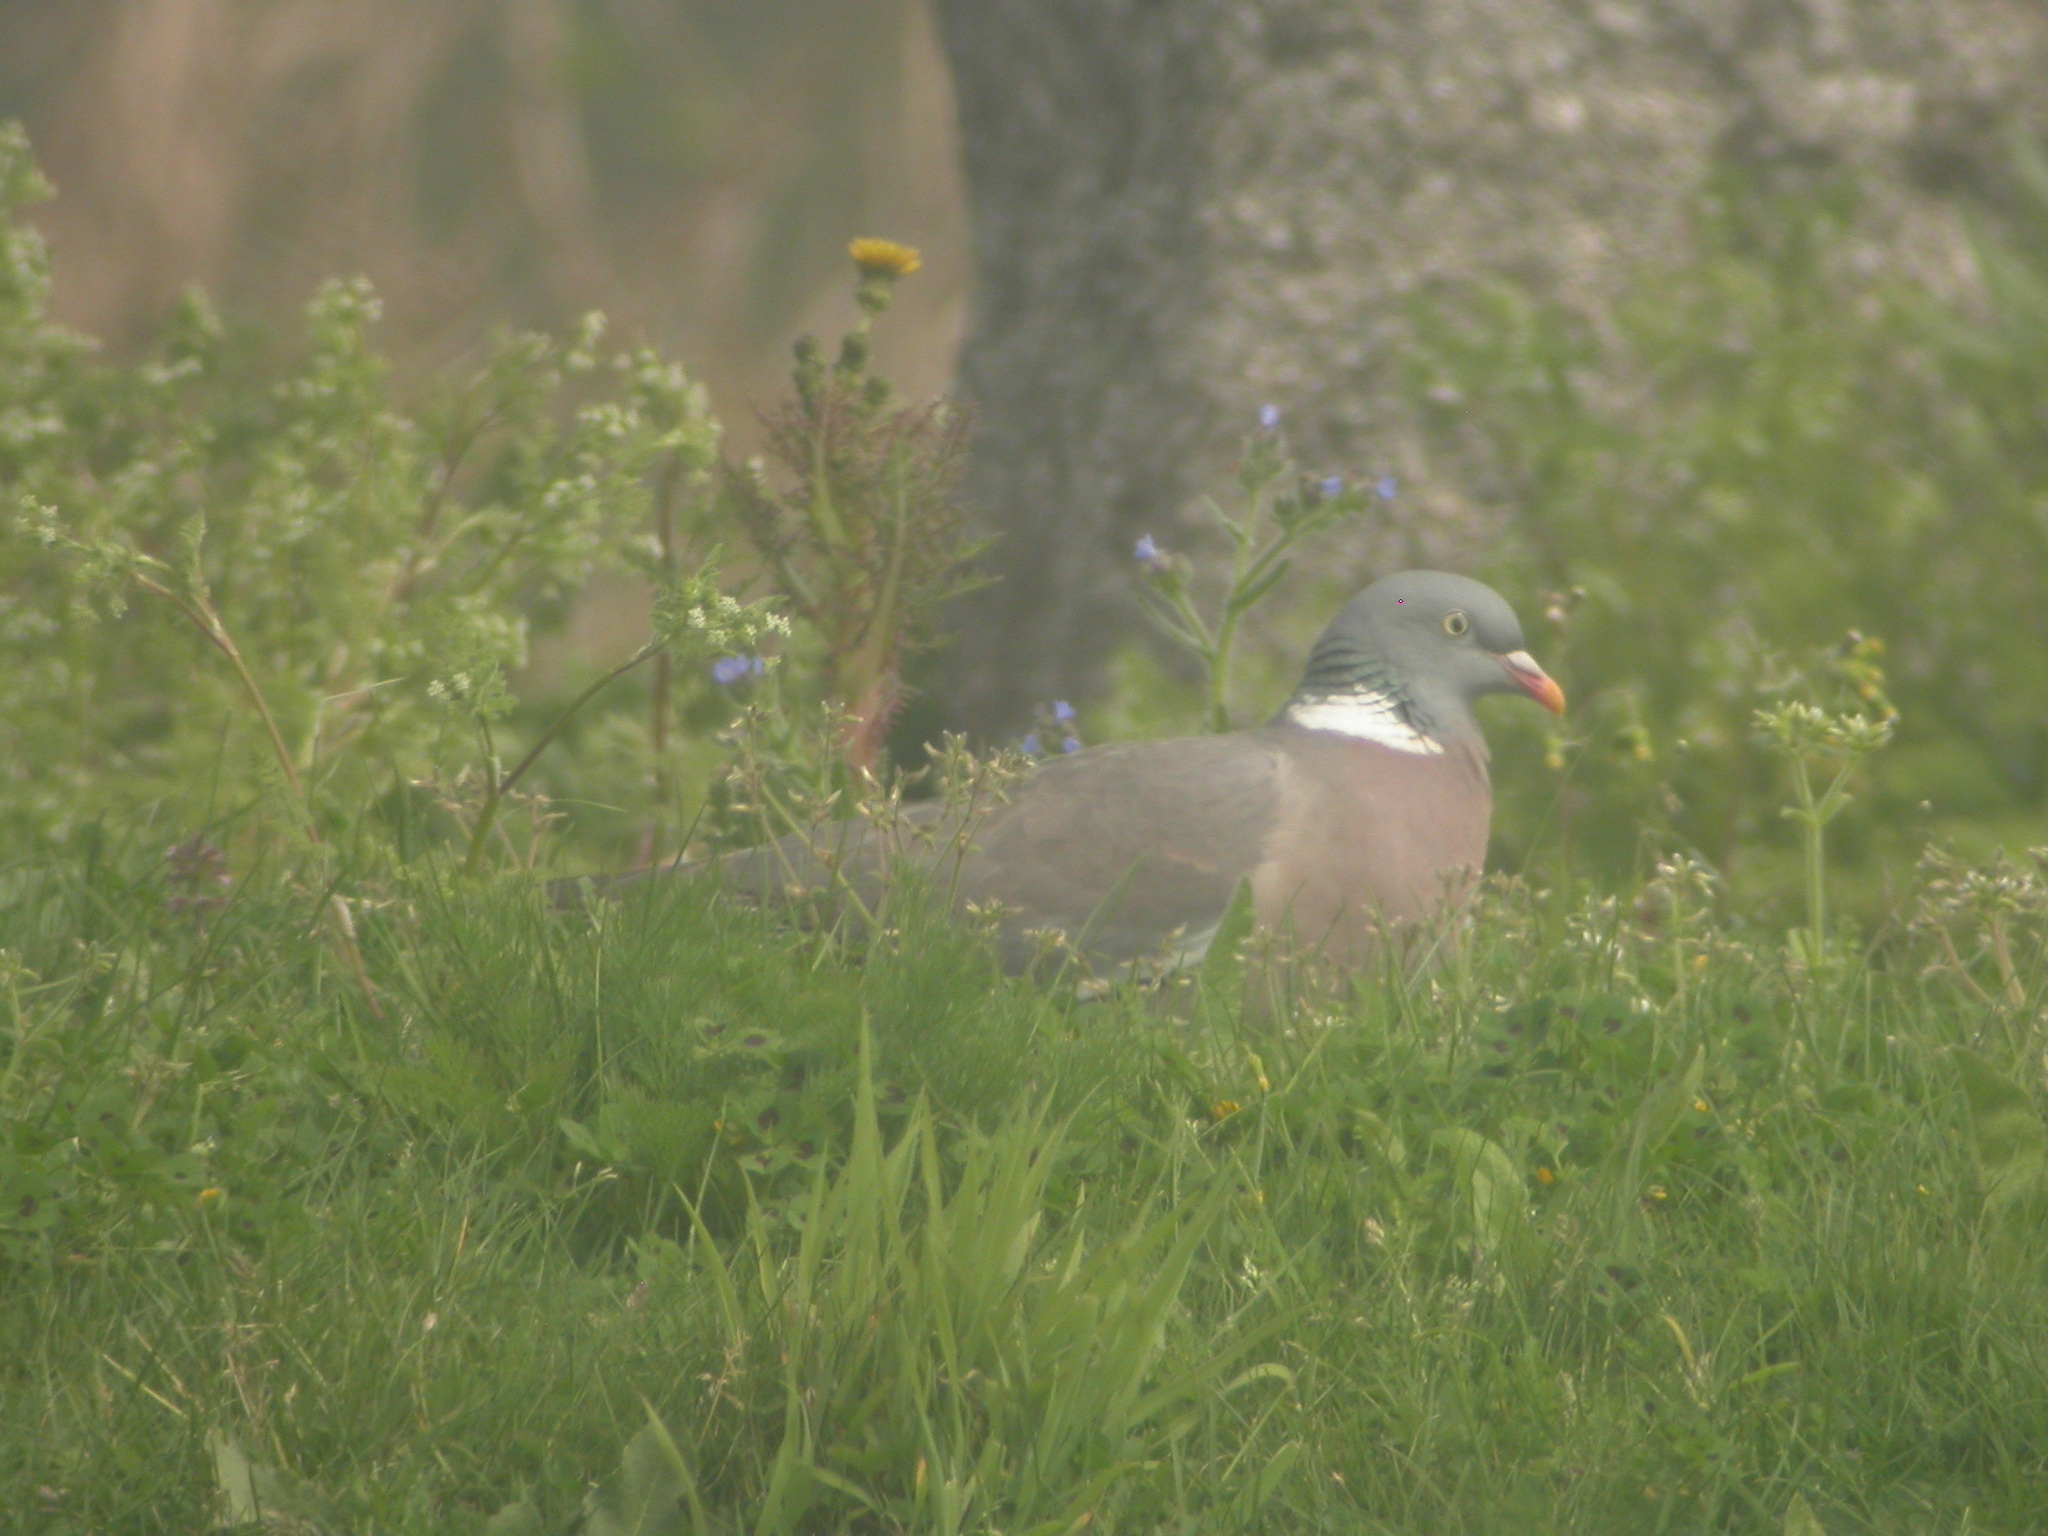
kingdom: Animalia
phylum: Chordata
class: Aves
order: Columbiformes
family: Columbidae
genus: Columba
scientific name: Columba palumbus
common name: Common wood pigeon
